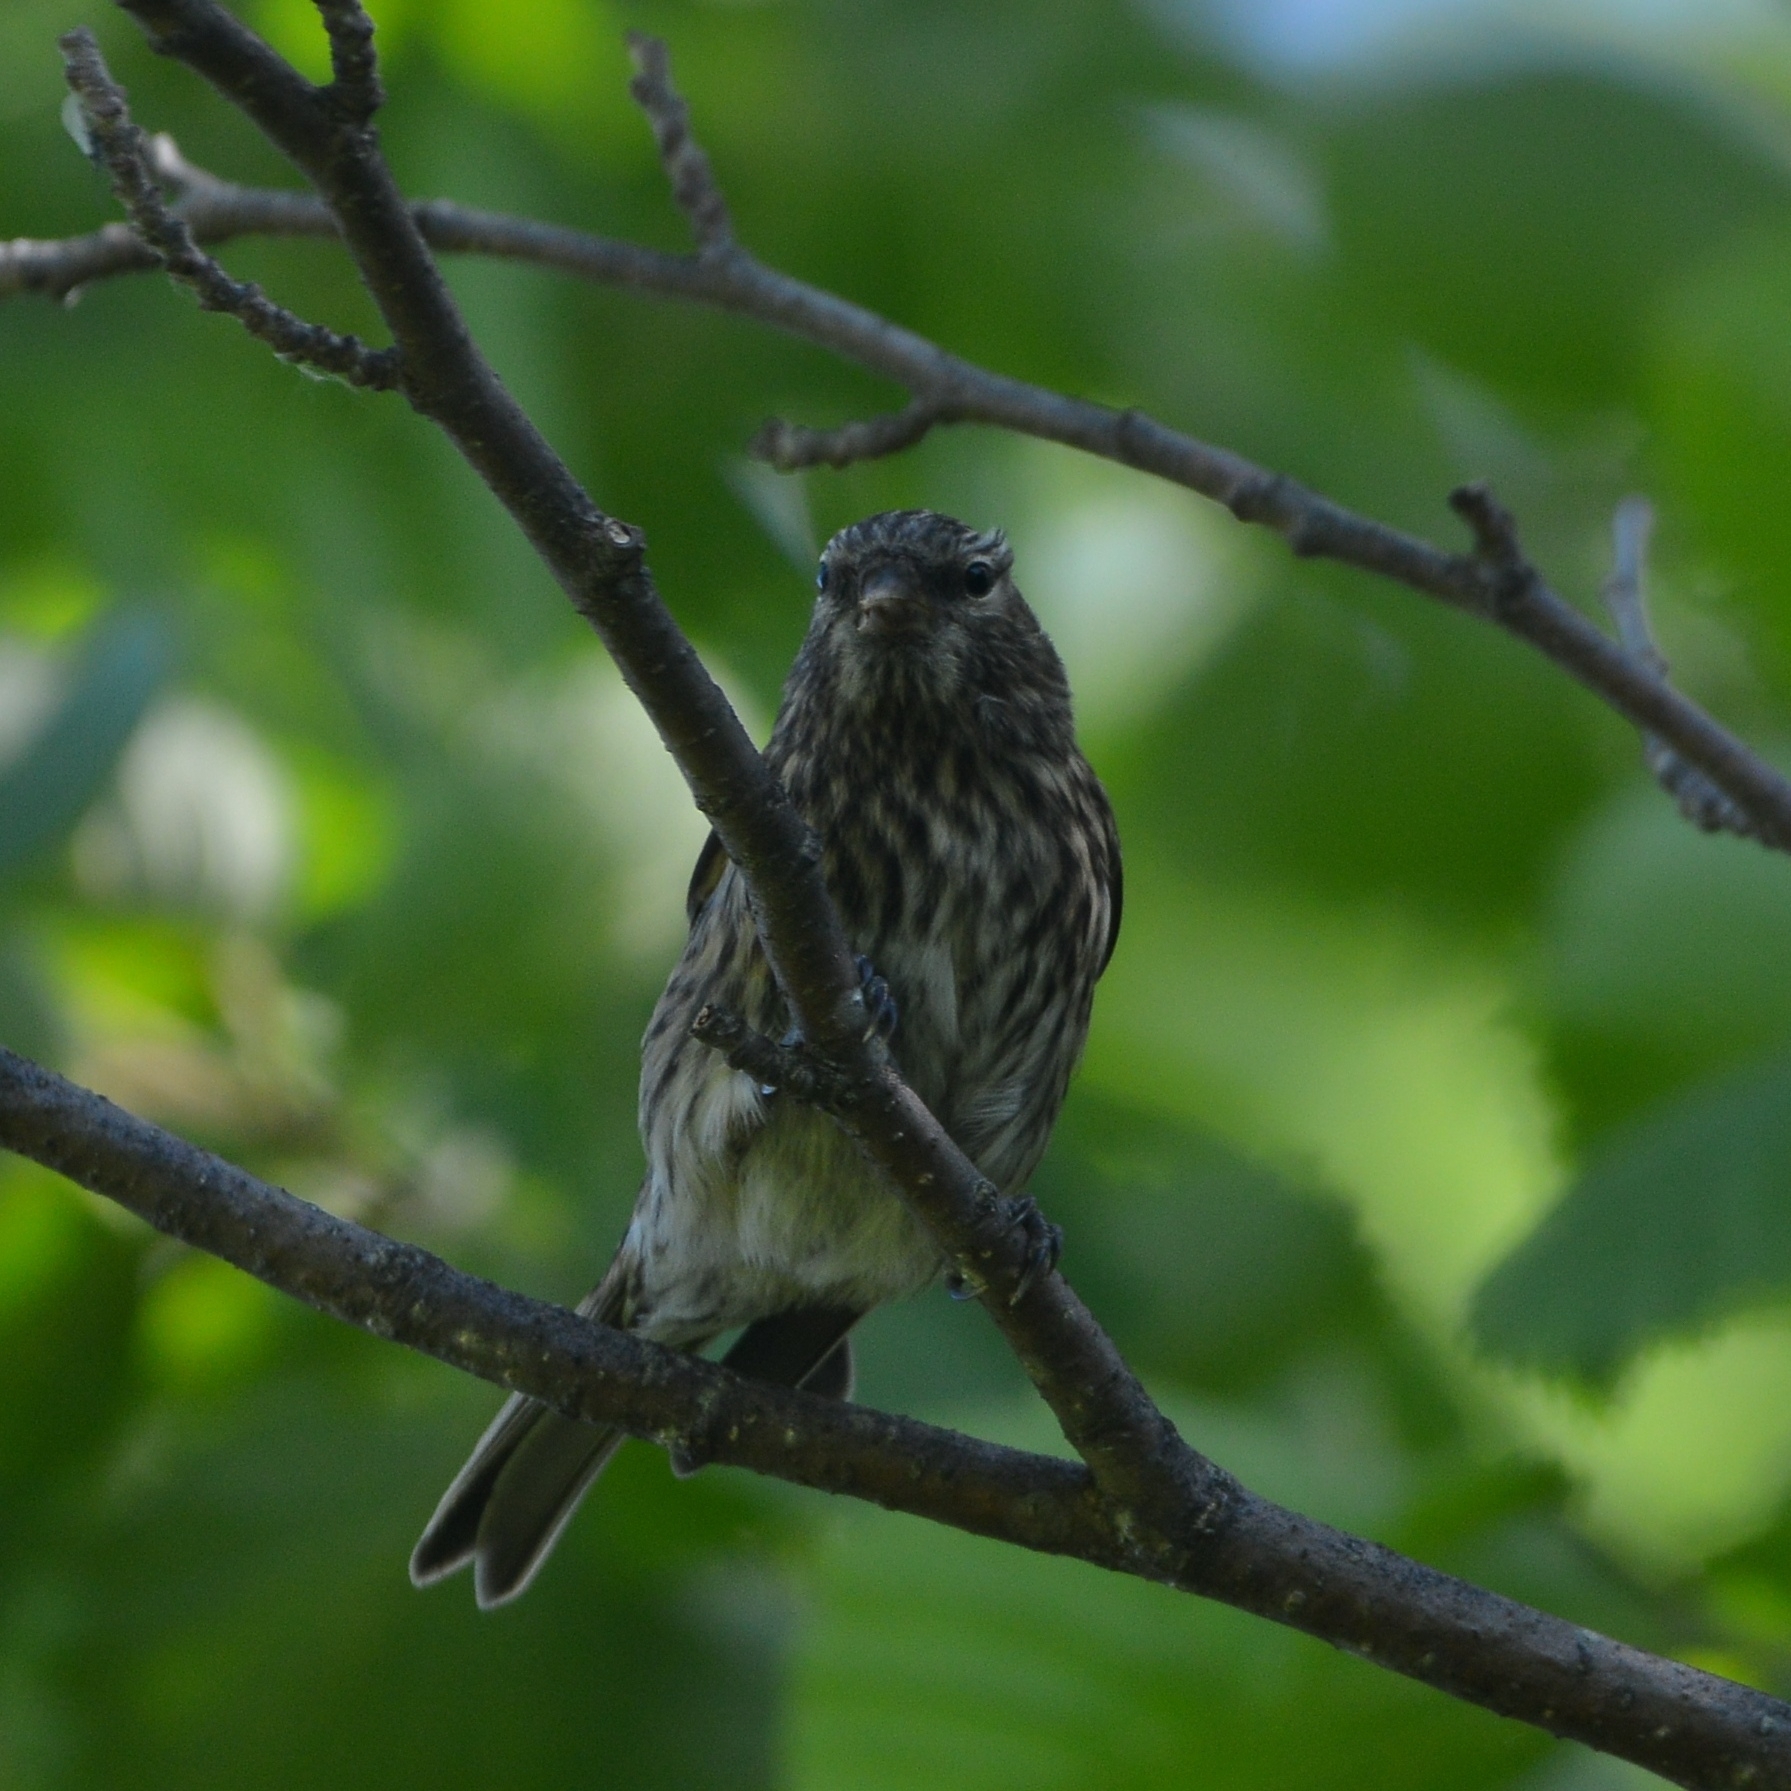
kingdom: Animalia
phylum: Chordata
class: Aves
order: Passeriformes
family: Fringillidae
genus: Acanthis
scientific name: Acanthis flammea
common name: Common redpoll
